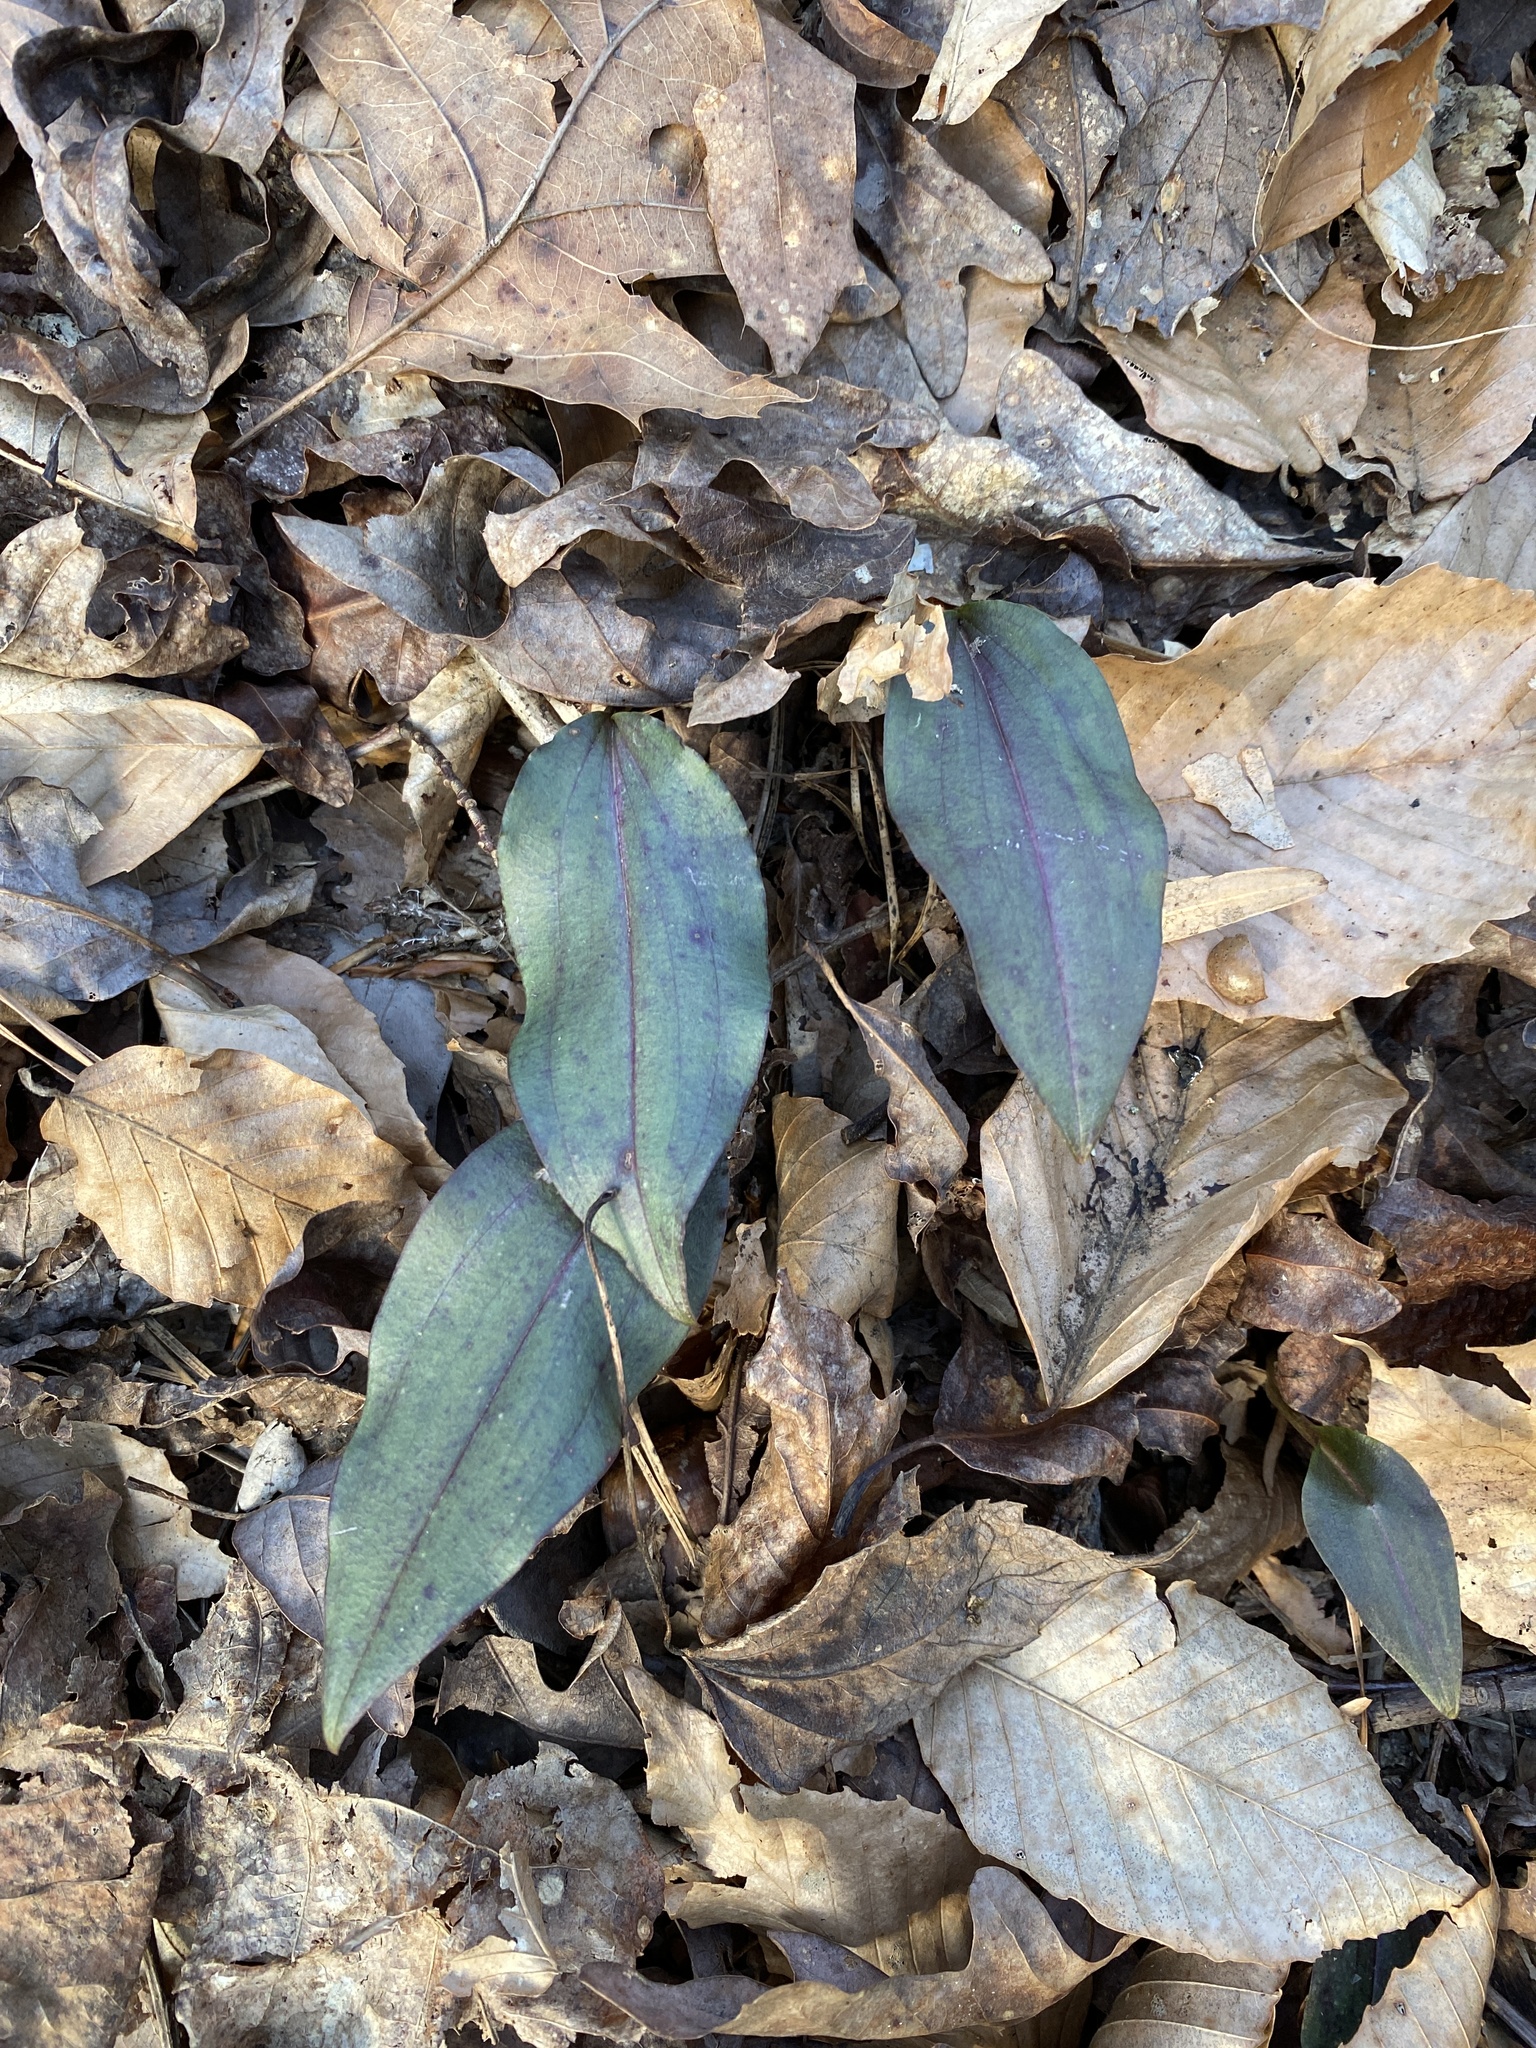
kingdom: Plantae
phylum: Tracheophyta
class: Liliopsida
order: Asparagales
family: Orchidaceae
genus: Tipularia
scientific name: Tipularia discolor
